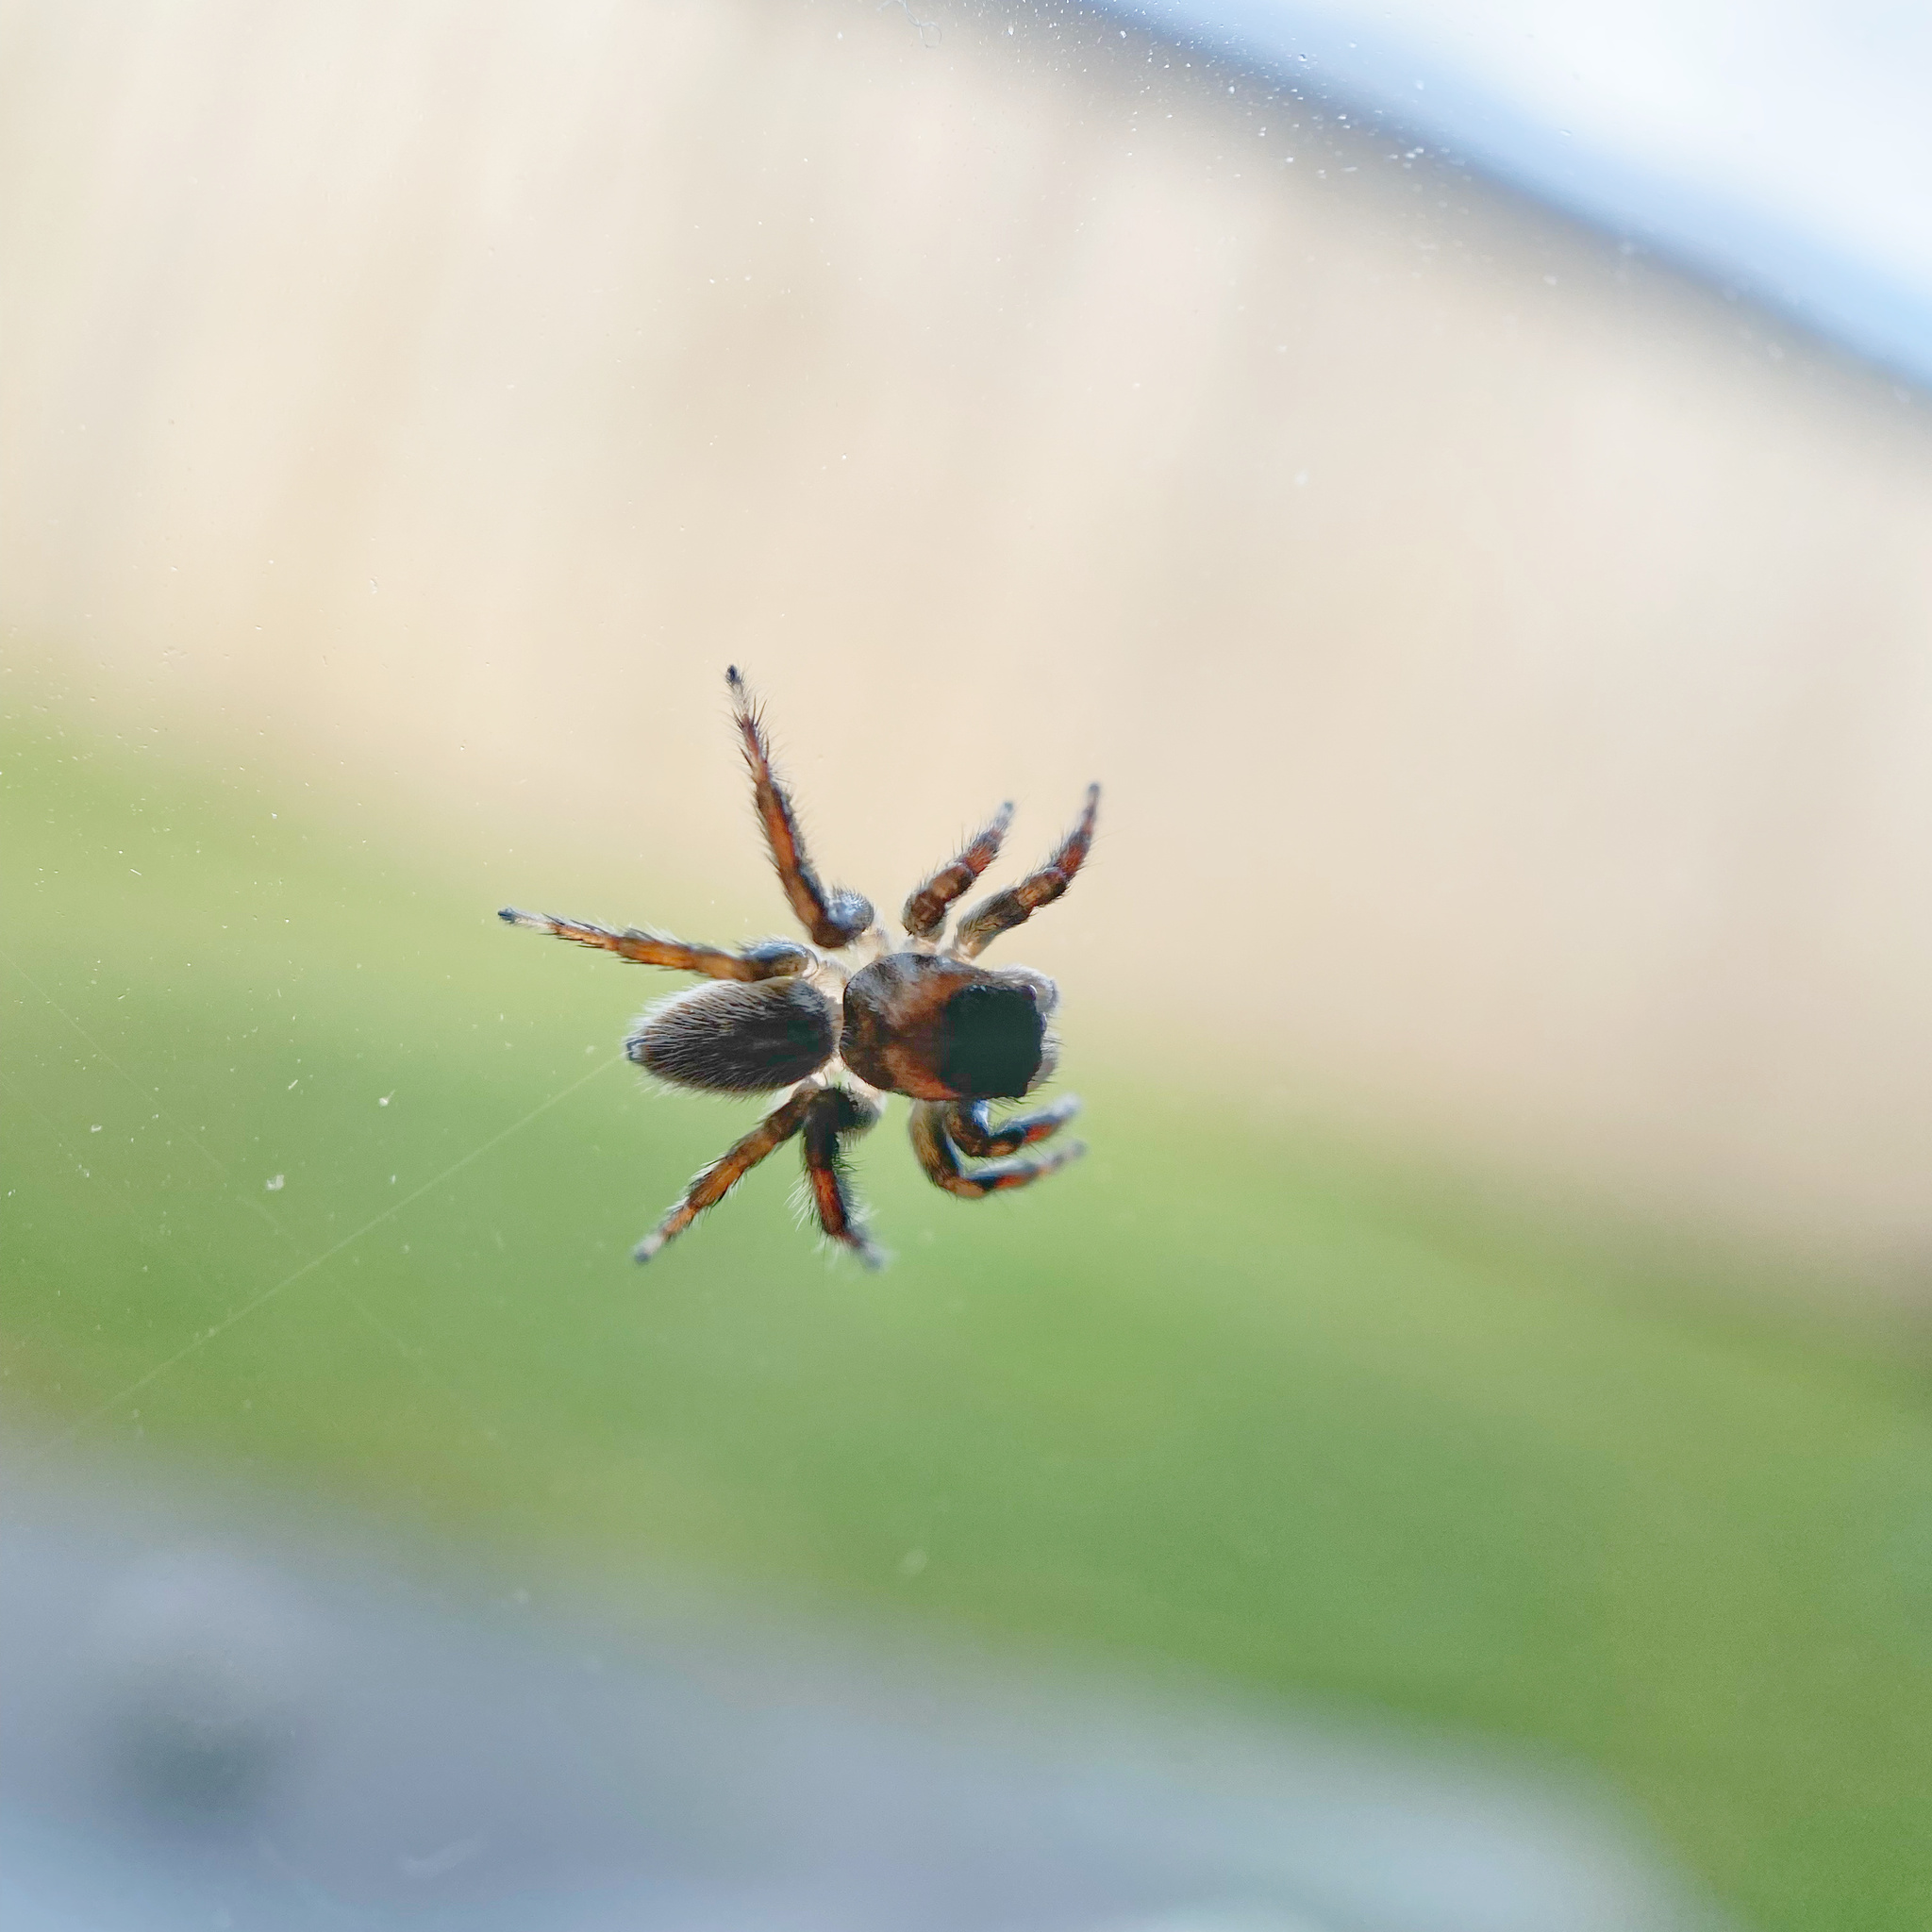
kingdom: Animalia
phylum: Arthropoda
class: Arachnida
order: Araneae
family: Salticidae
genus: Maratus
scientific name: Maratus griseus
